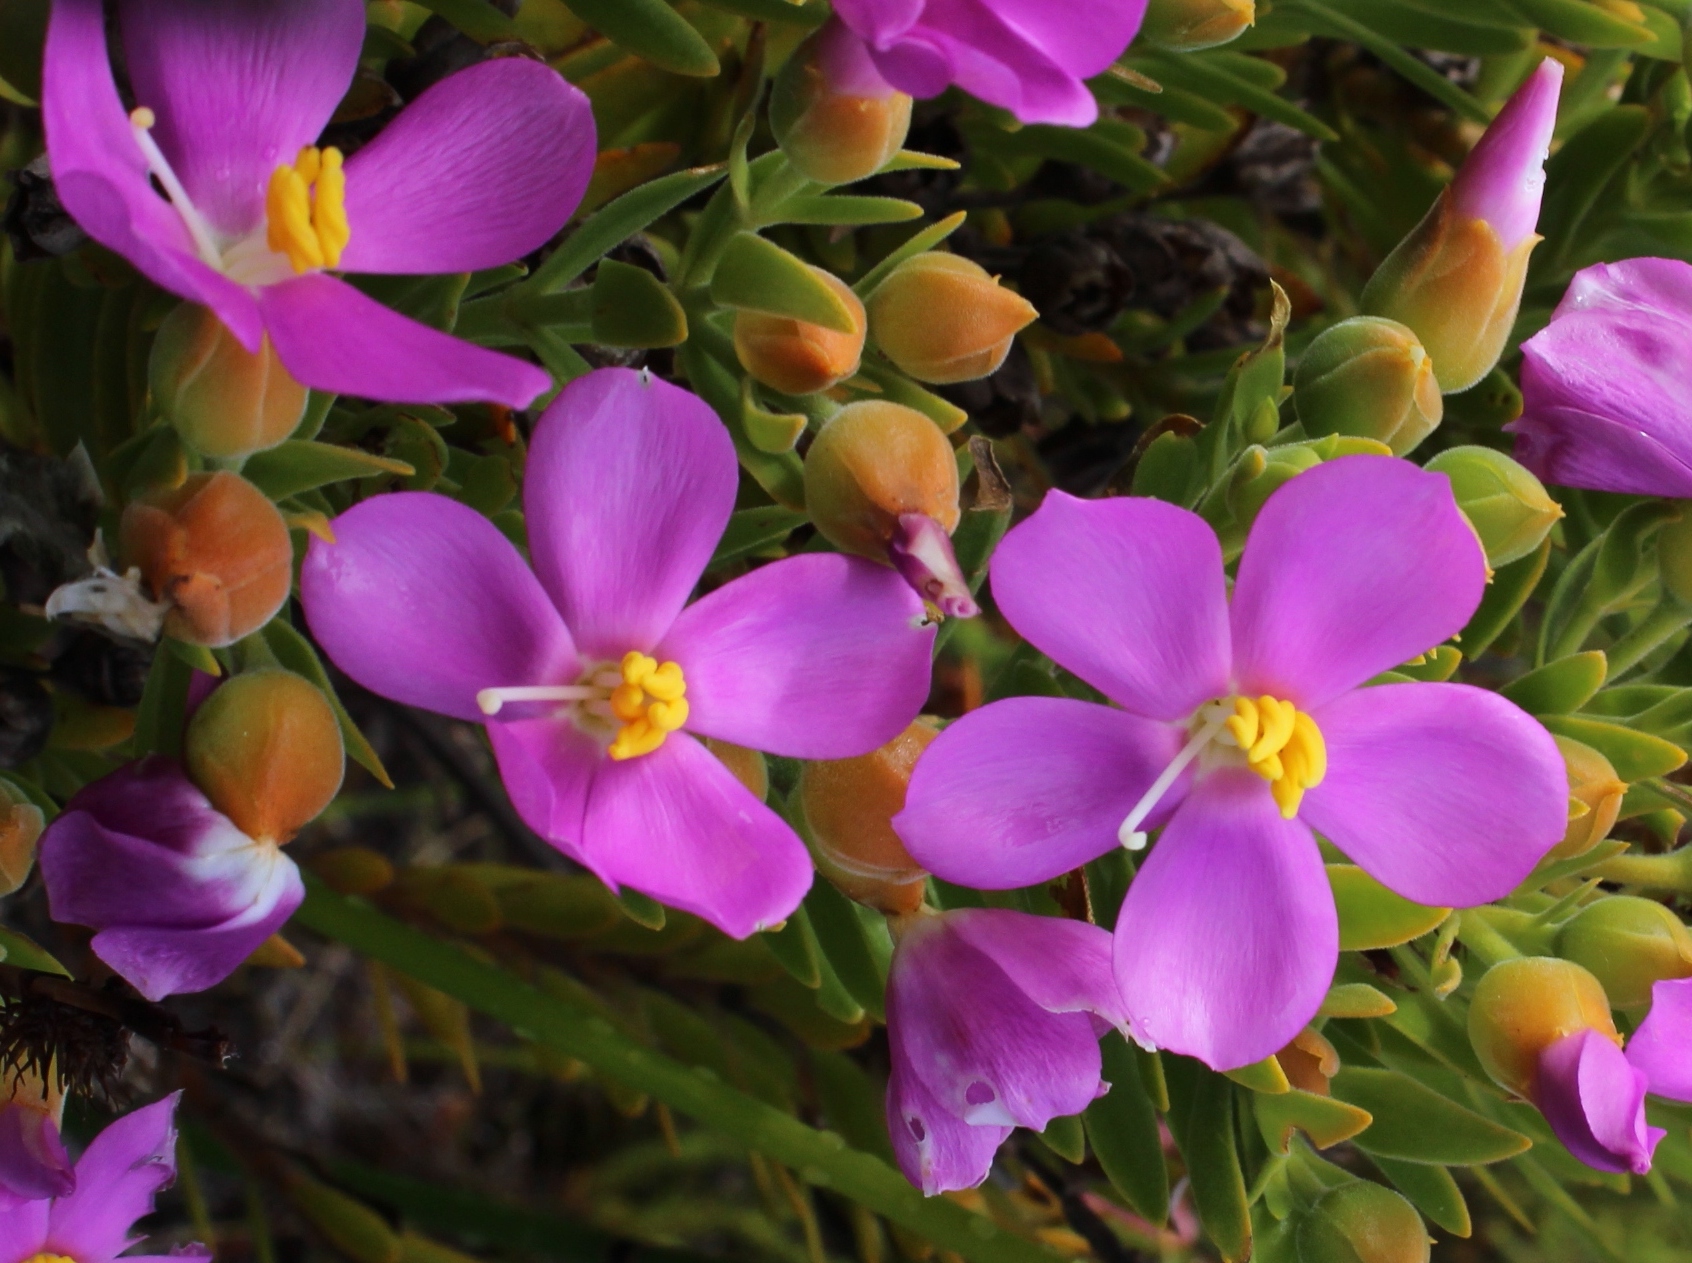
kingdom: Plantae
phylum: Tracheophyta
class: Magnoliopsida
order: Gentianales
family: Gentianaceae
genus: Orphium
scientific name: Orphium frutescens
